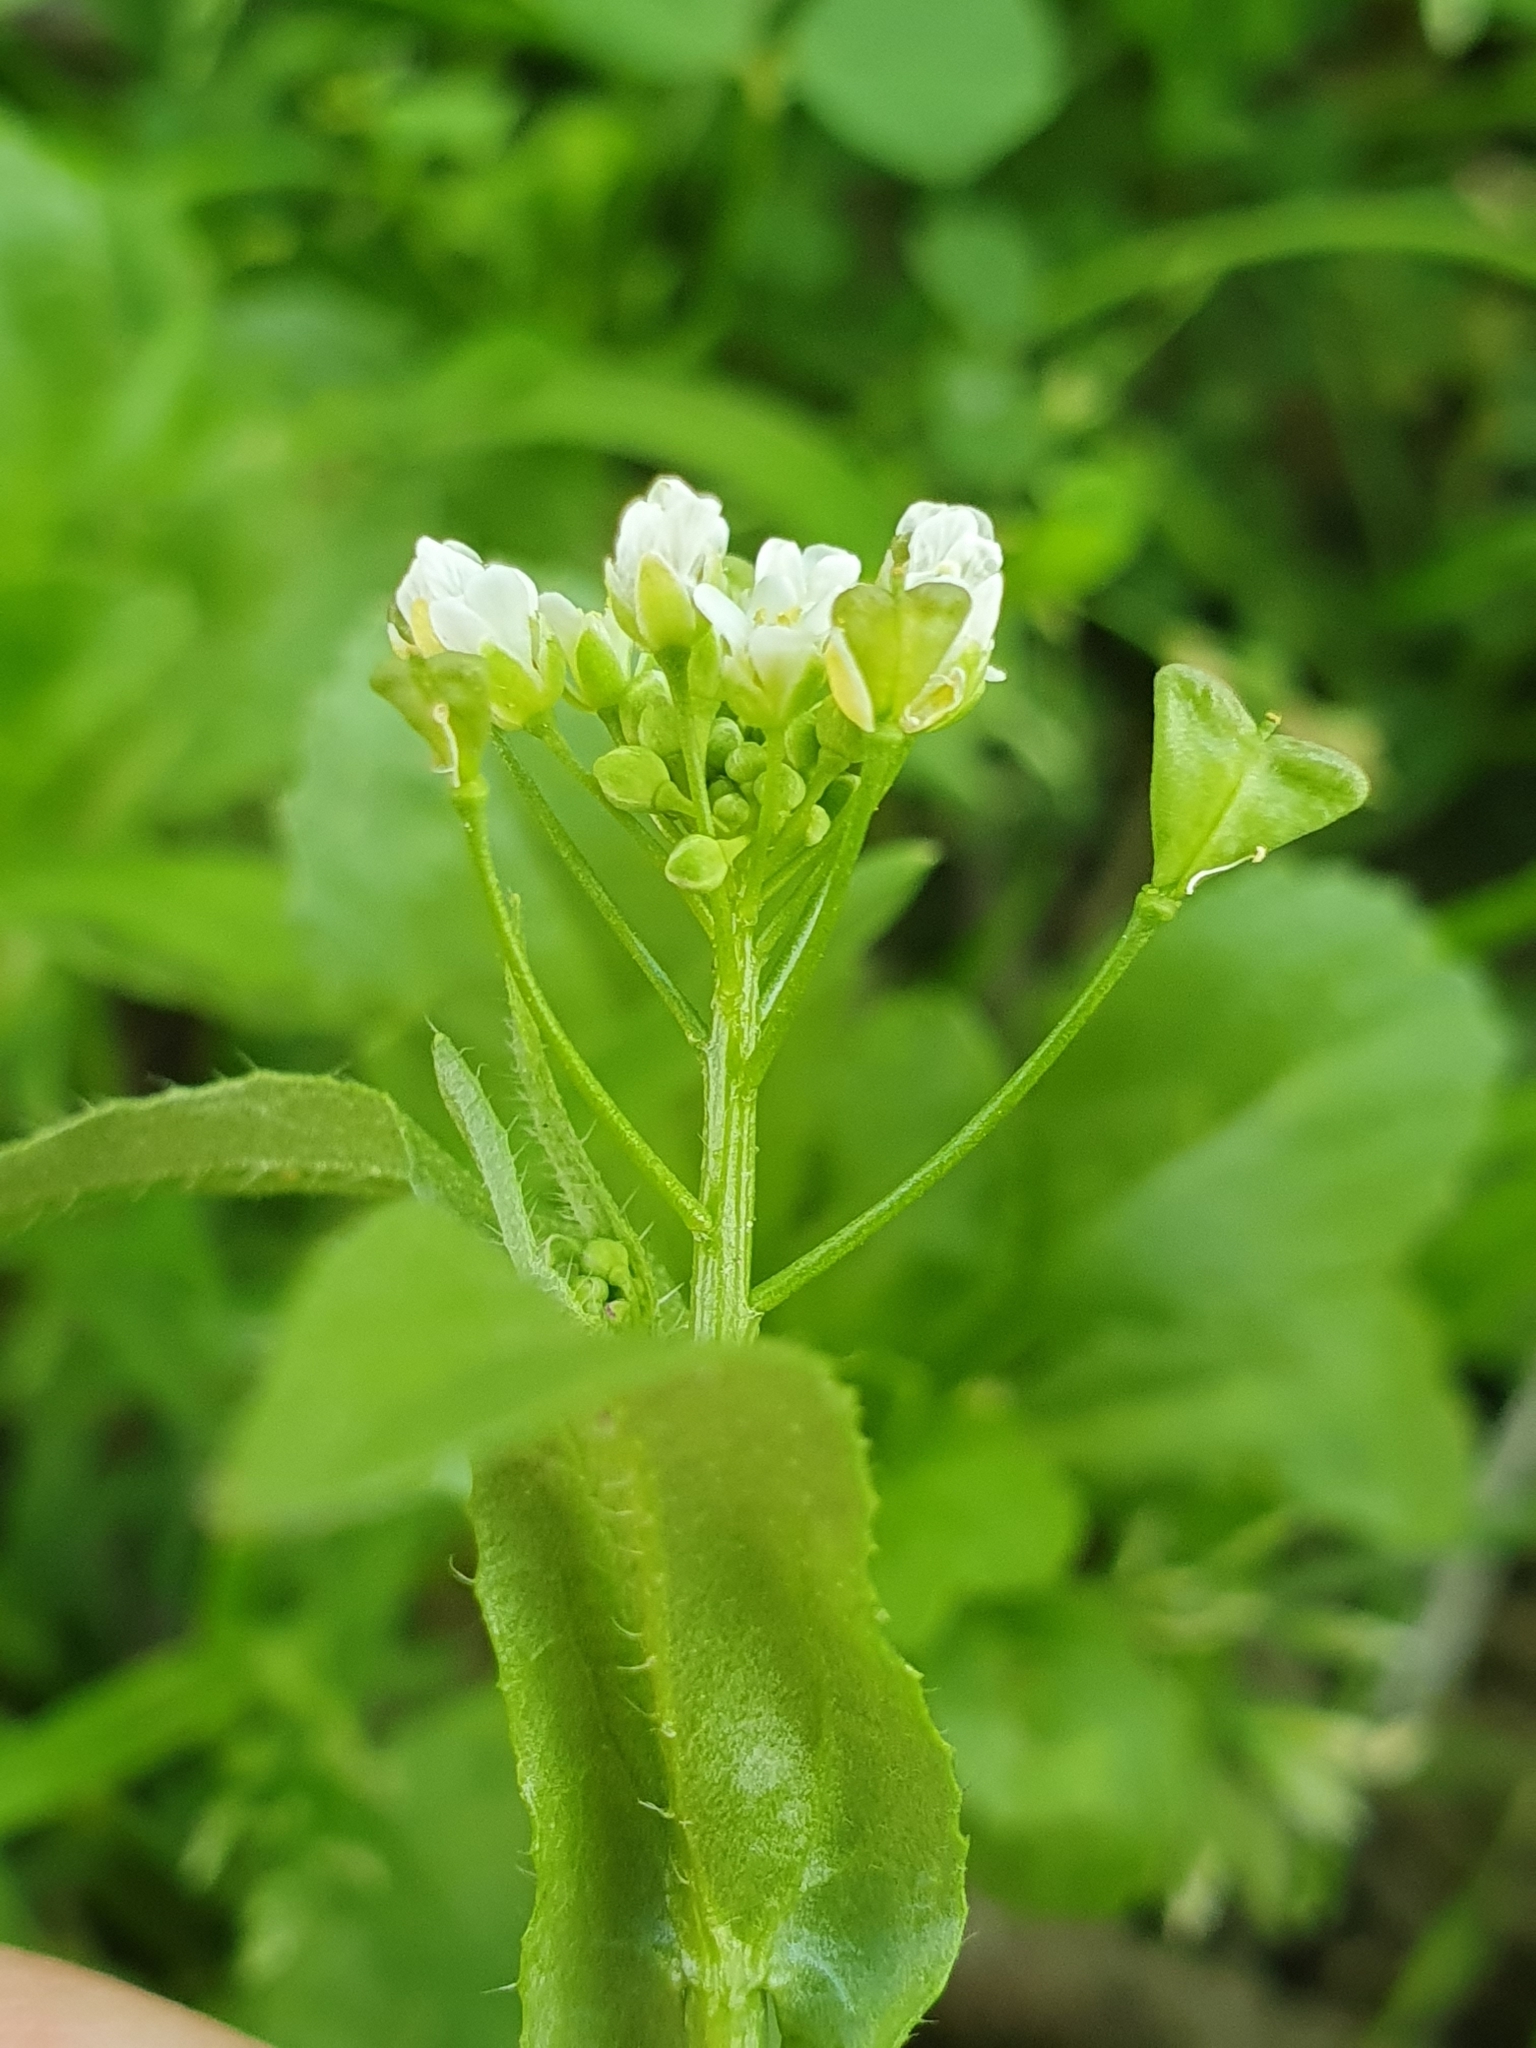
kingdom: Plantae
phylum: Tracheophyta
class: Magnoliopsida
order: Brassicales
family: Brassicaceae
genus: Capsella
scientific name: Capsella bursa-pastoris
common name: Shepherd's purse
